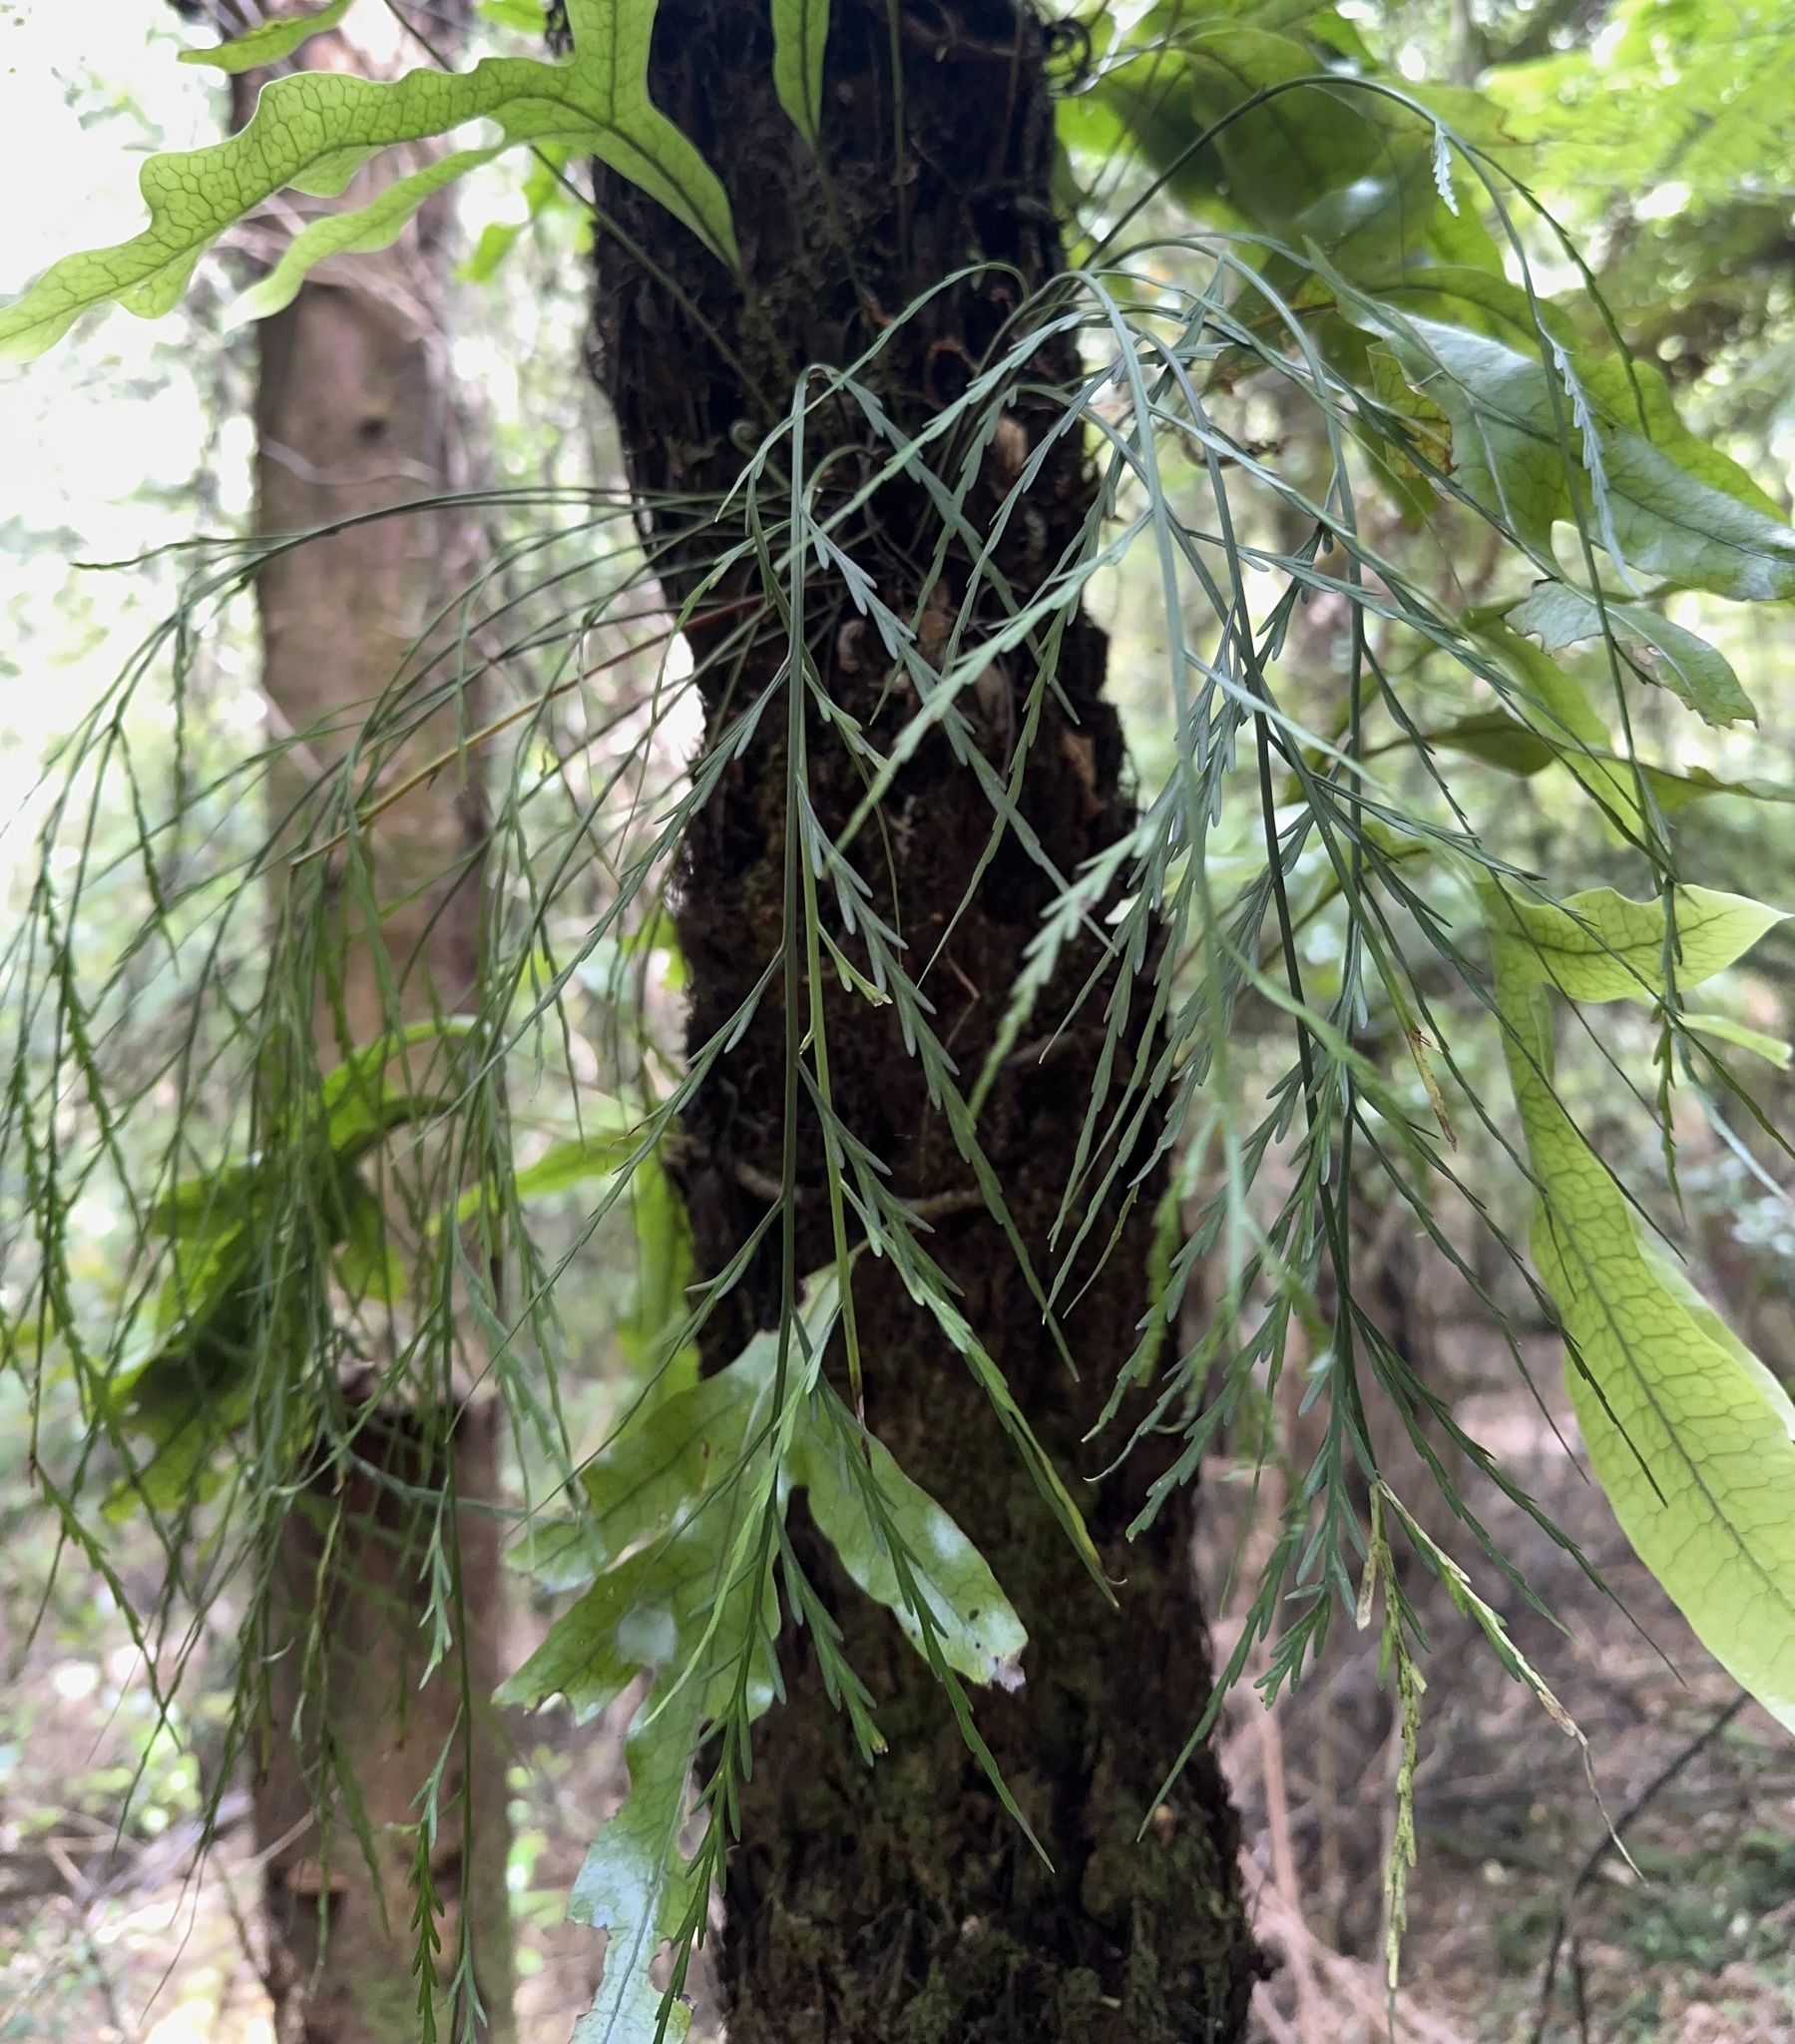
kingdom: Plantae
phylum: Tracheophyta
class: Polypodiopsida
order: Polypodiales
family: Aspleniaceae
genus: Asplenium
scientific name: Asplenium flaccidum
